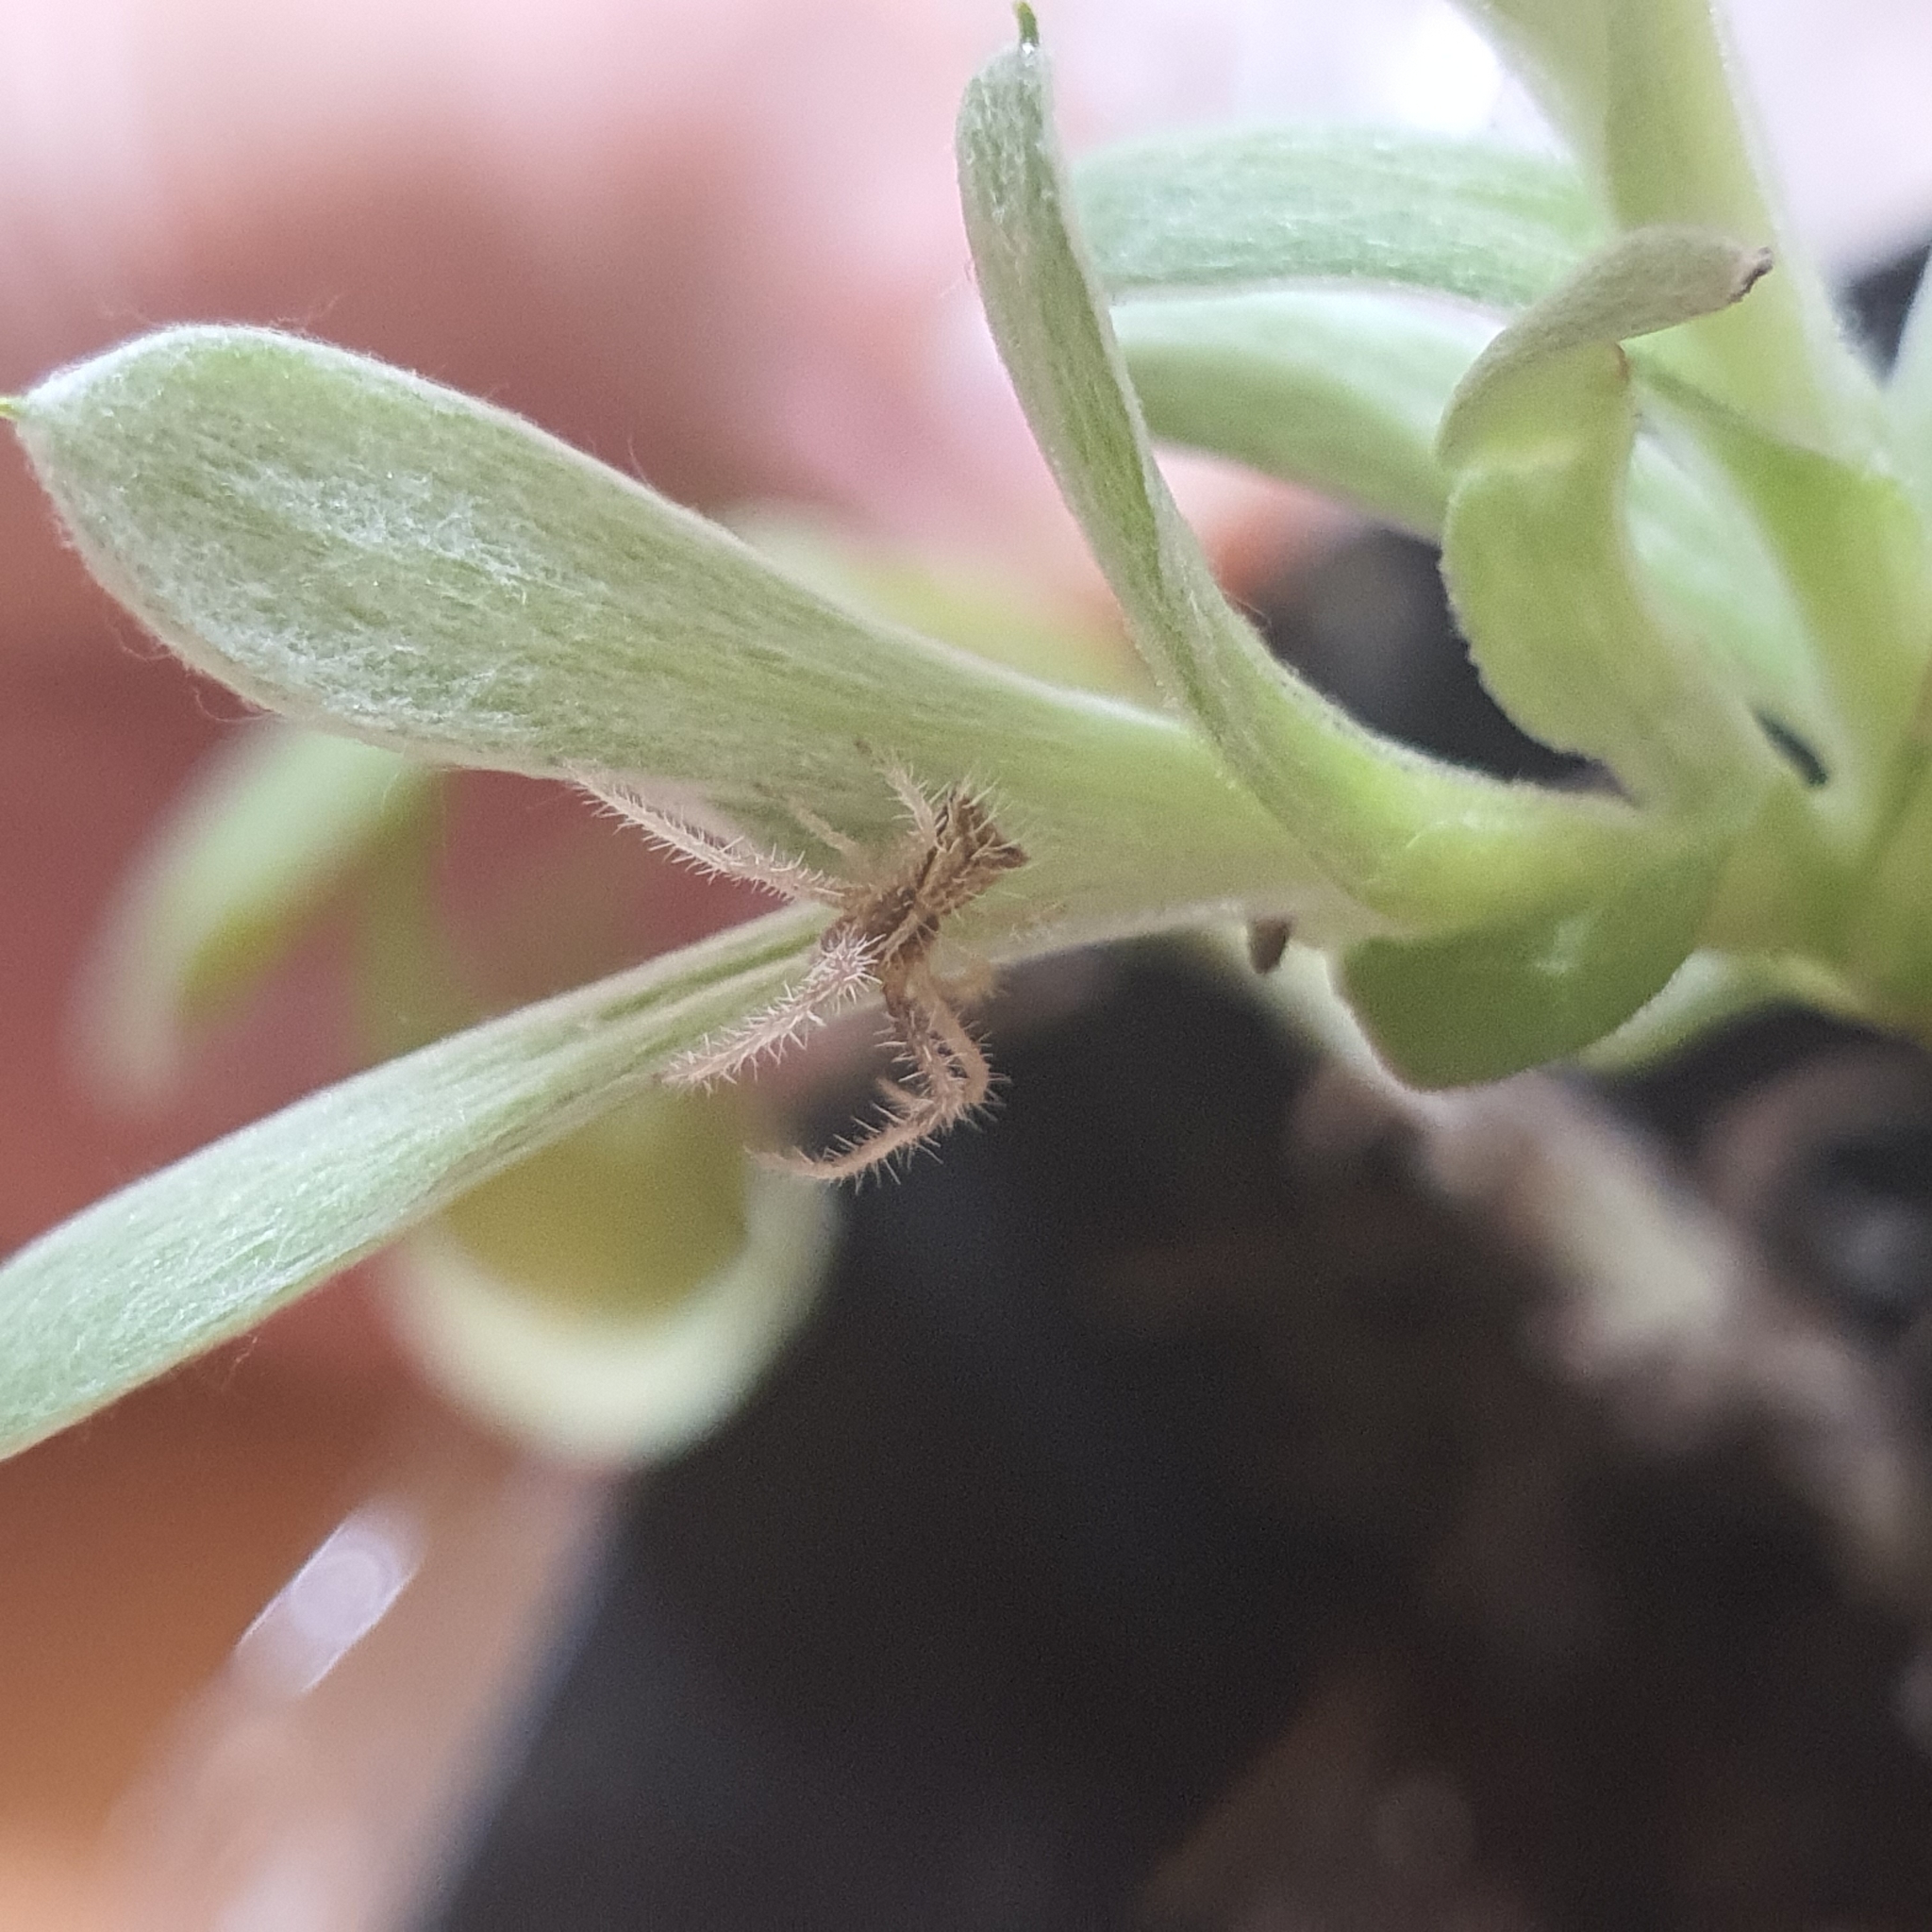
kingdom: Animalia
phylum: Arthropoda
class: Arachnida
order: Araneae
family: Thomisidae
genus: Sidymella
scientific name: Sidymella hirsuta
